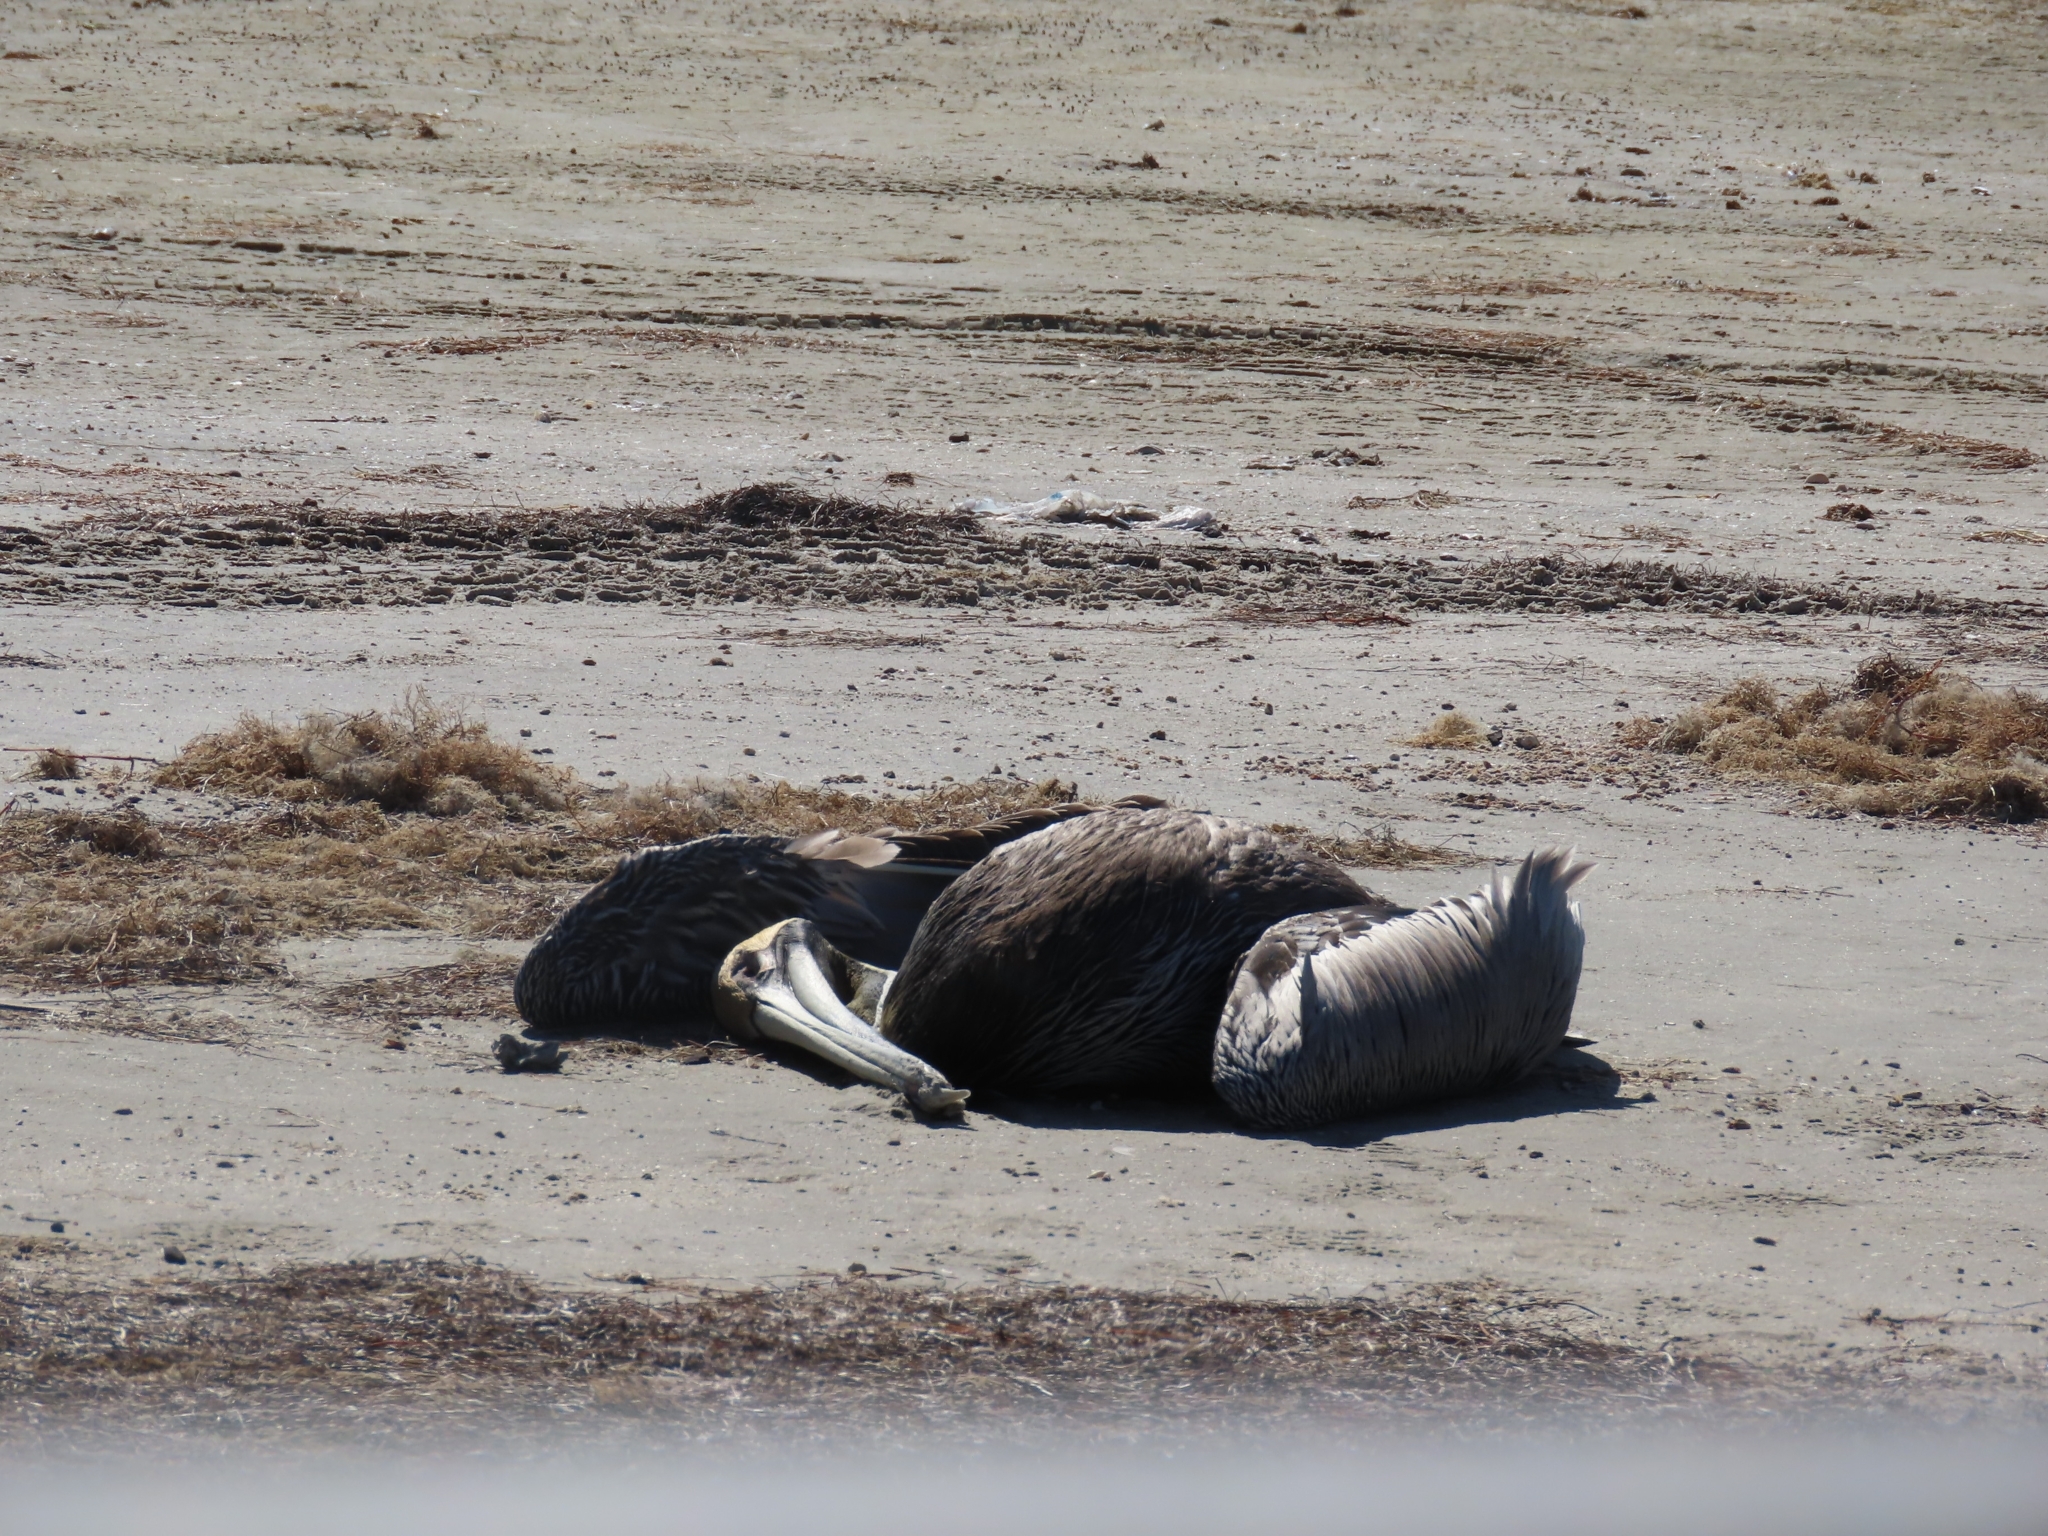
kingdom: Animalia
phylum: Chordata
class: Aves
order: Pelecaniformes
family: Pelecanidae
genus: Pelecanus
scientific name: Pelecanus occidentalis
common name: Brown pelican
